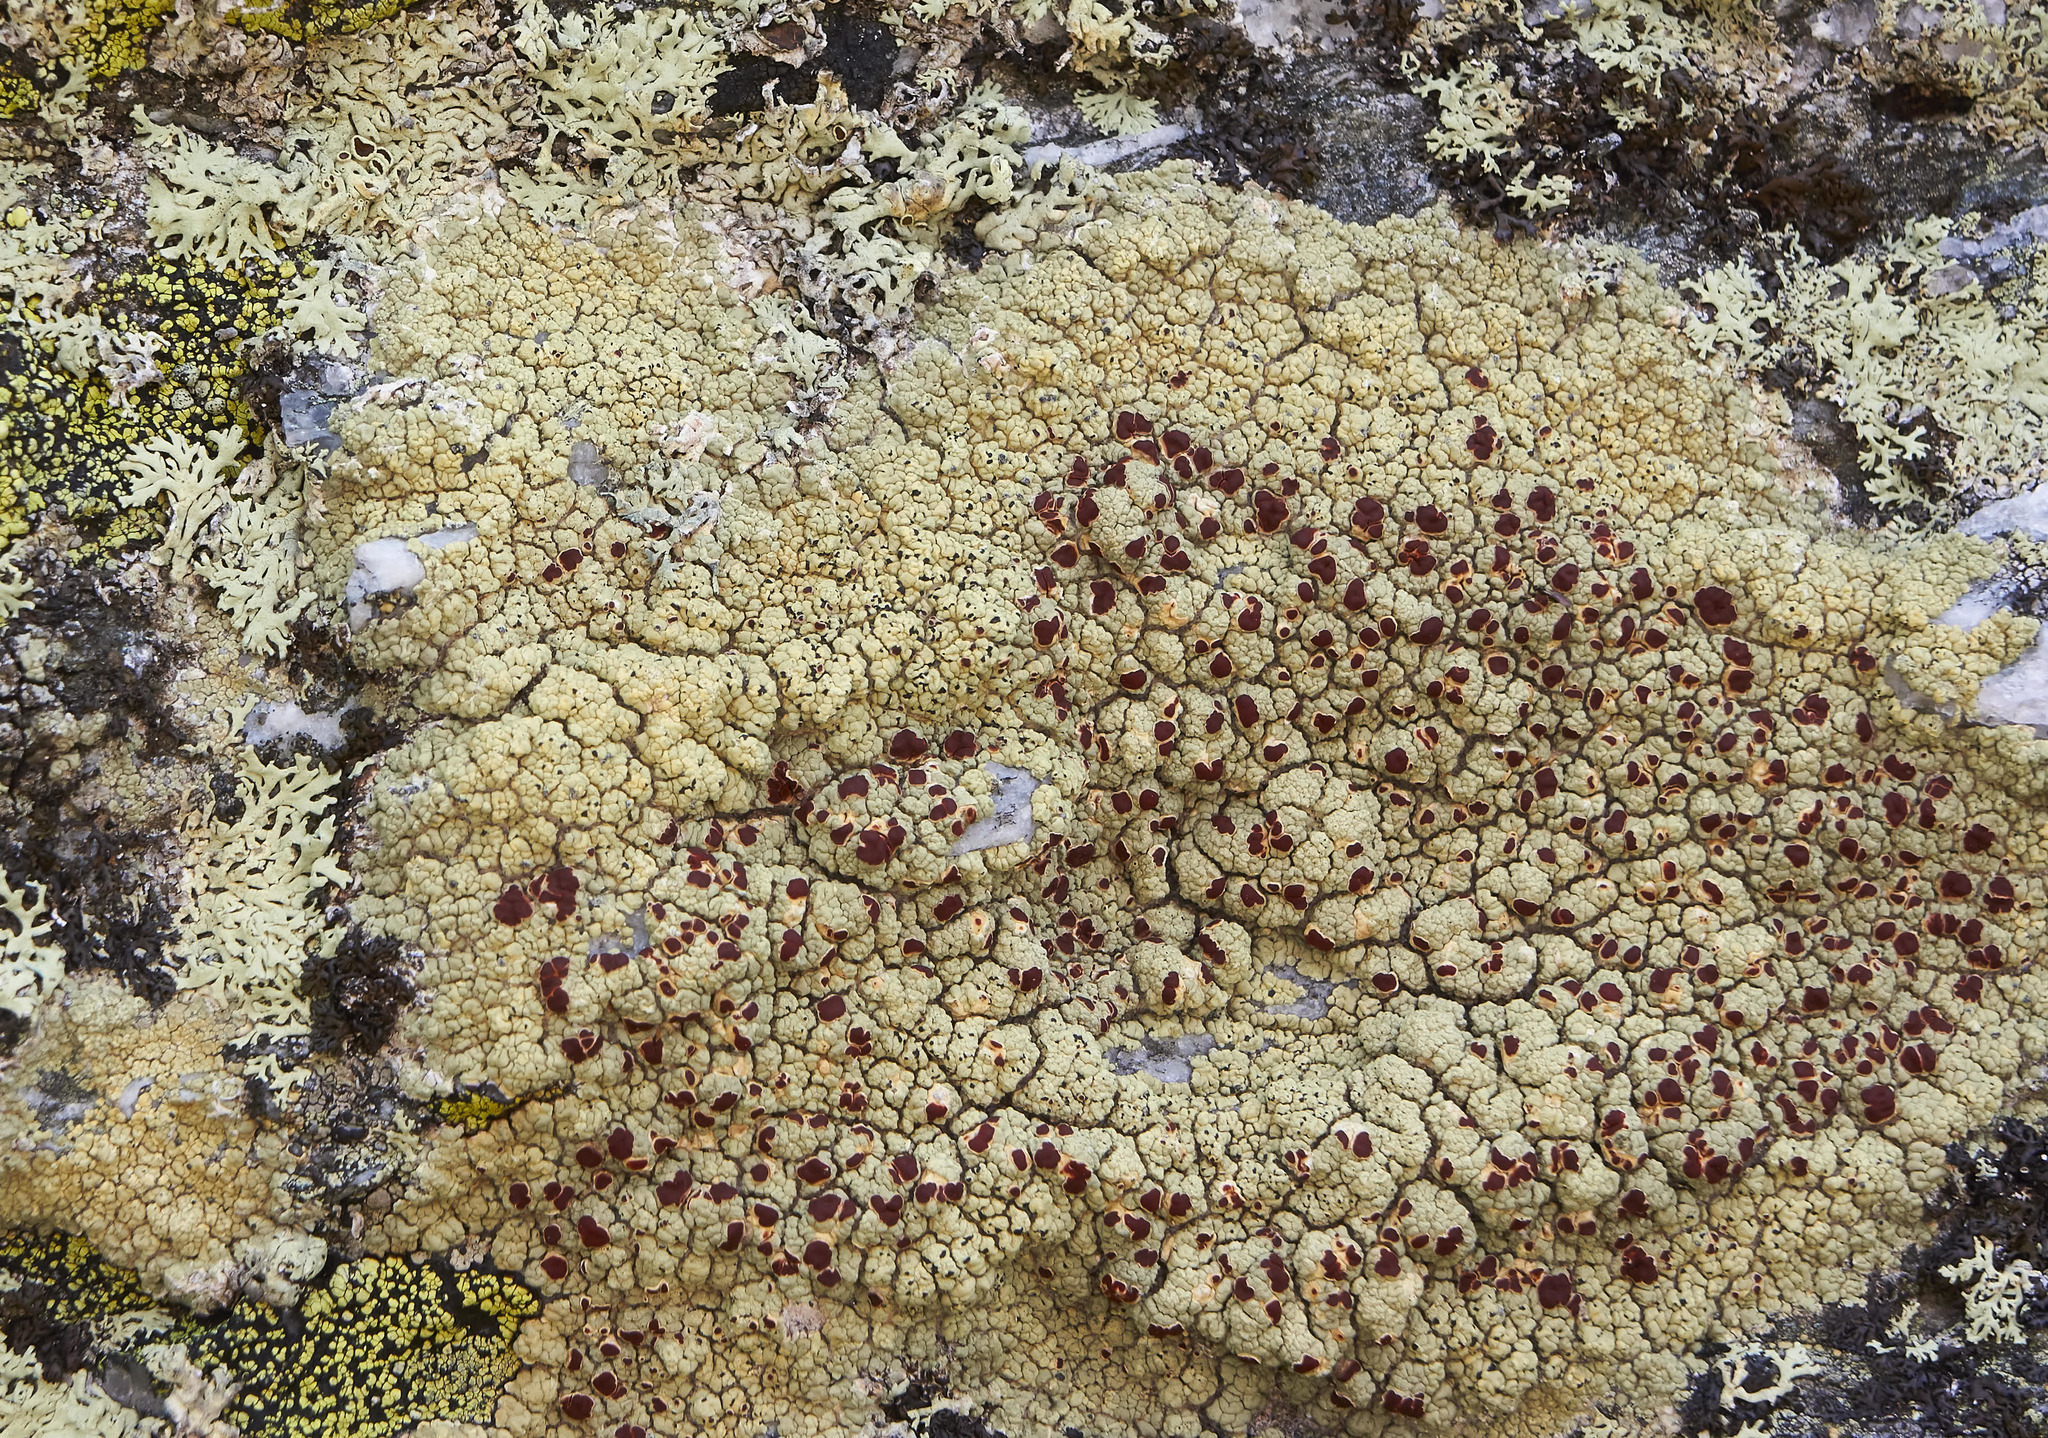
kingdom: Fungi
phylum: Ascomycota
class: Lecanoromycetes
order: Umbilicariales
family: Ophioparmaceae
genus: Ophioparma
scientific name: Ophioparma ventosa
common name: Blood-spot
